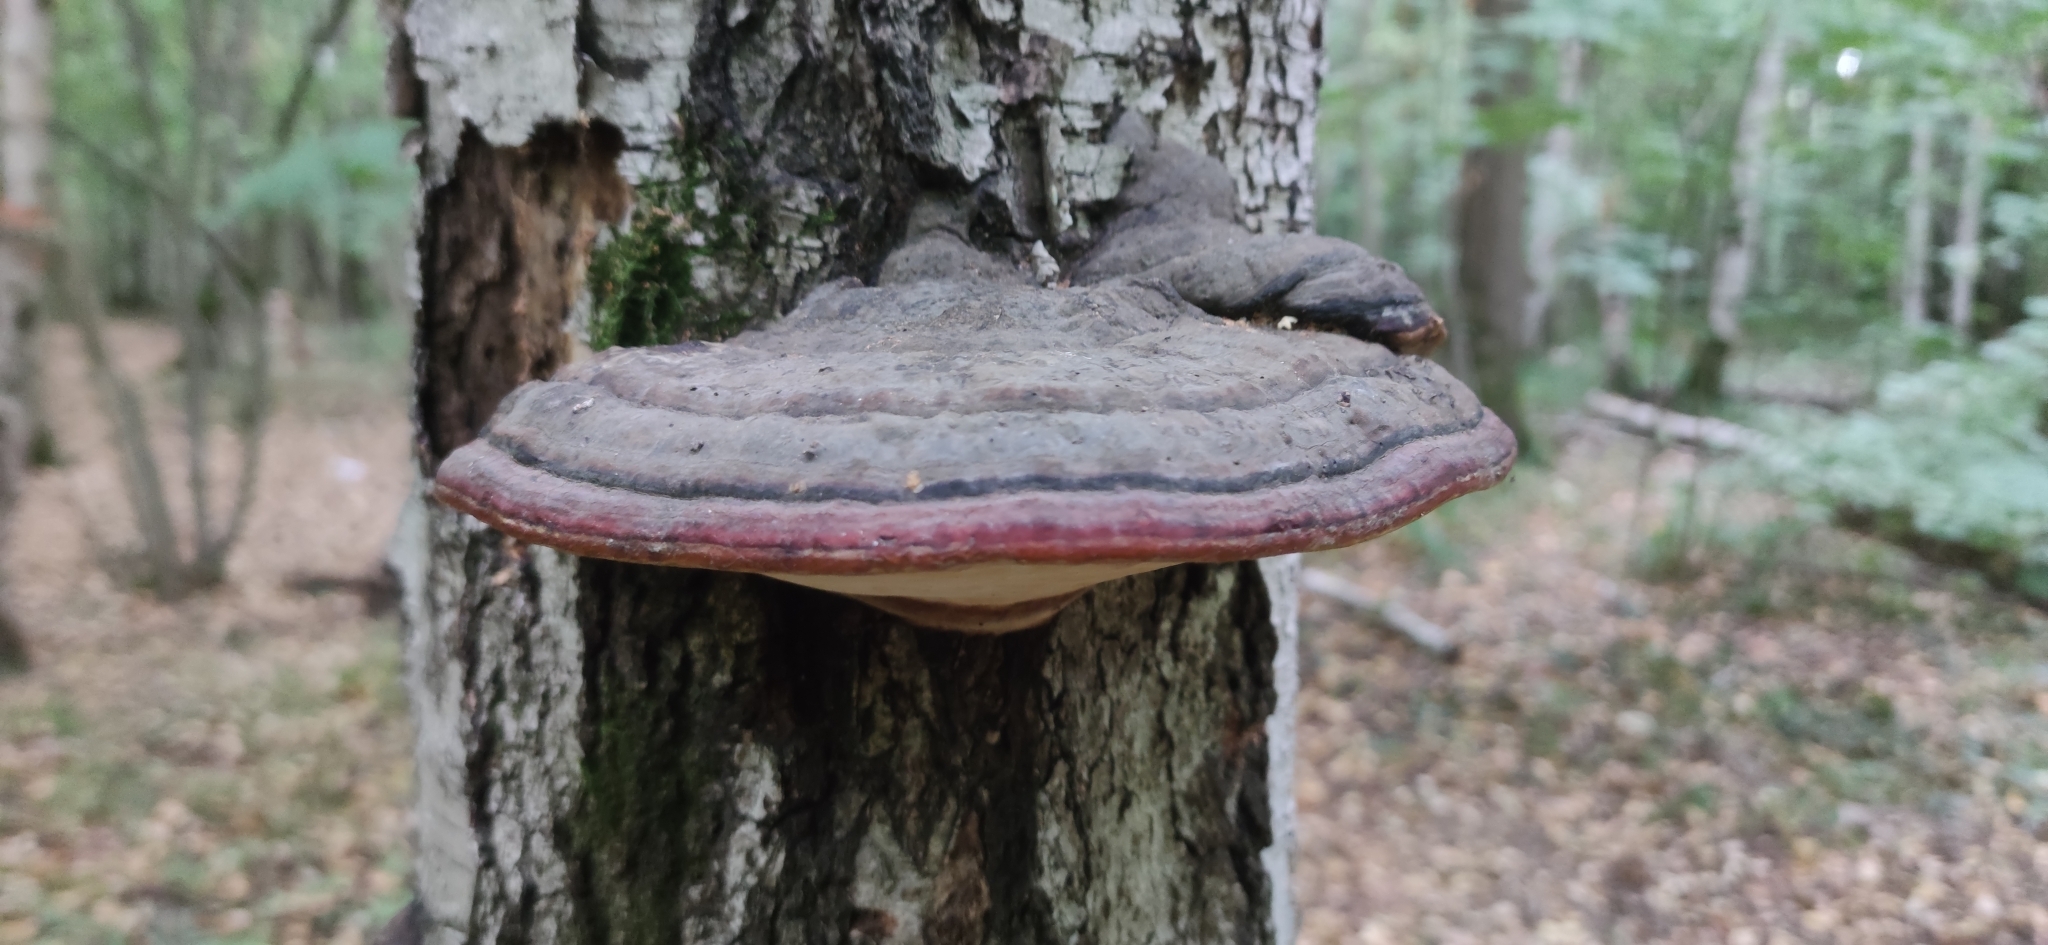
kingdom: Fungi
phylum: Basidiomycota
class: Agaricomycetes
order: Polyporales
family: Fomitopsidaceae
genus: Fomitopsis
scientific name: Fomitopsis pinicola
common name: Red-belted bracket
